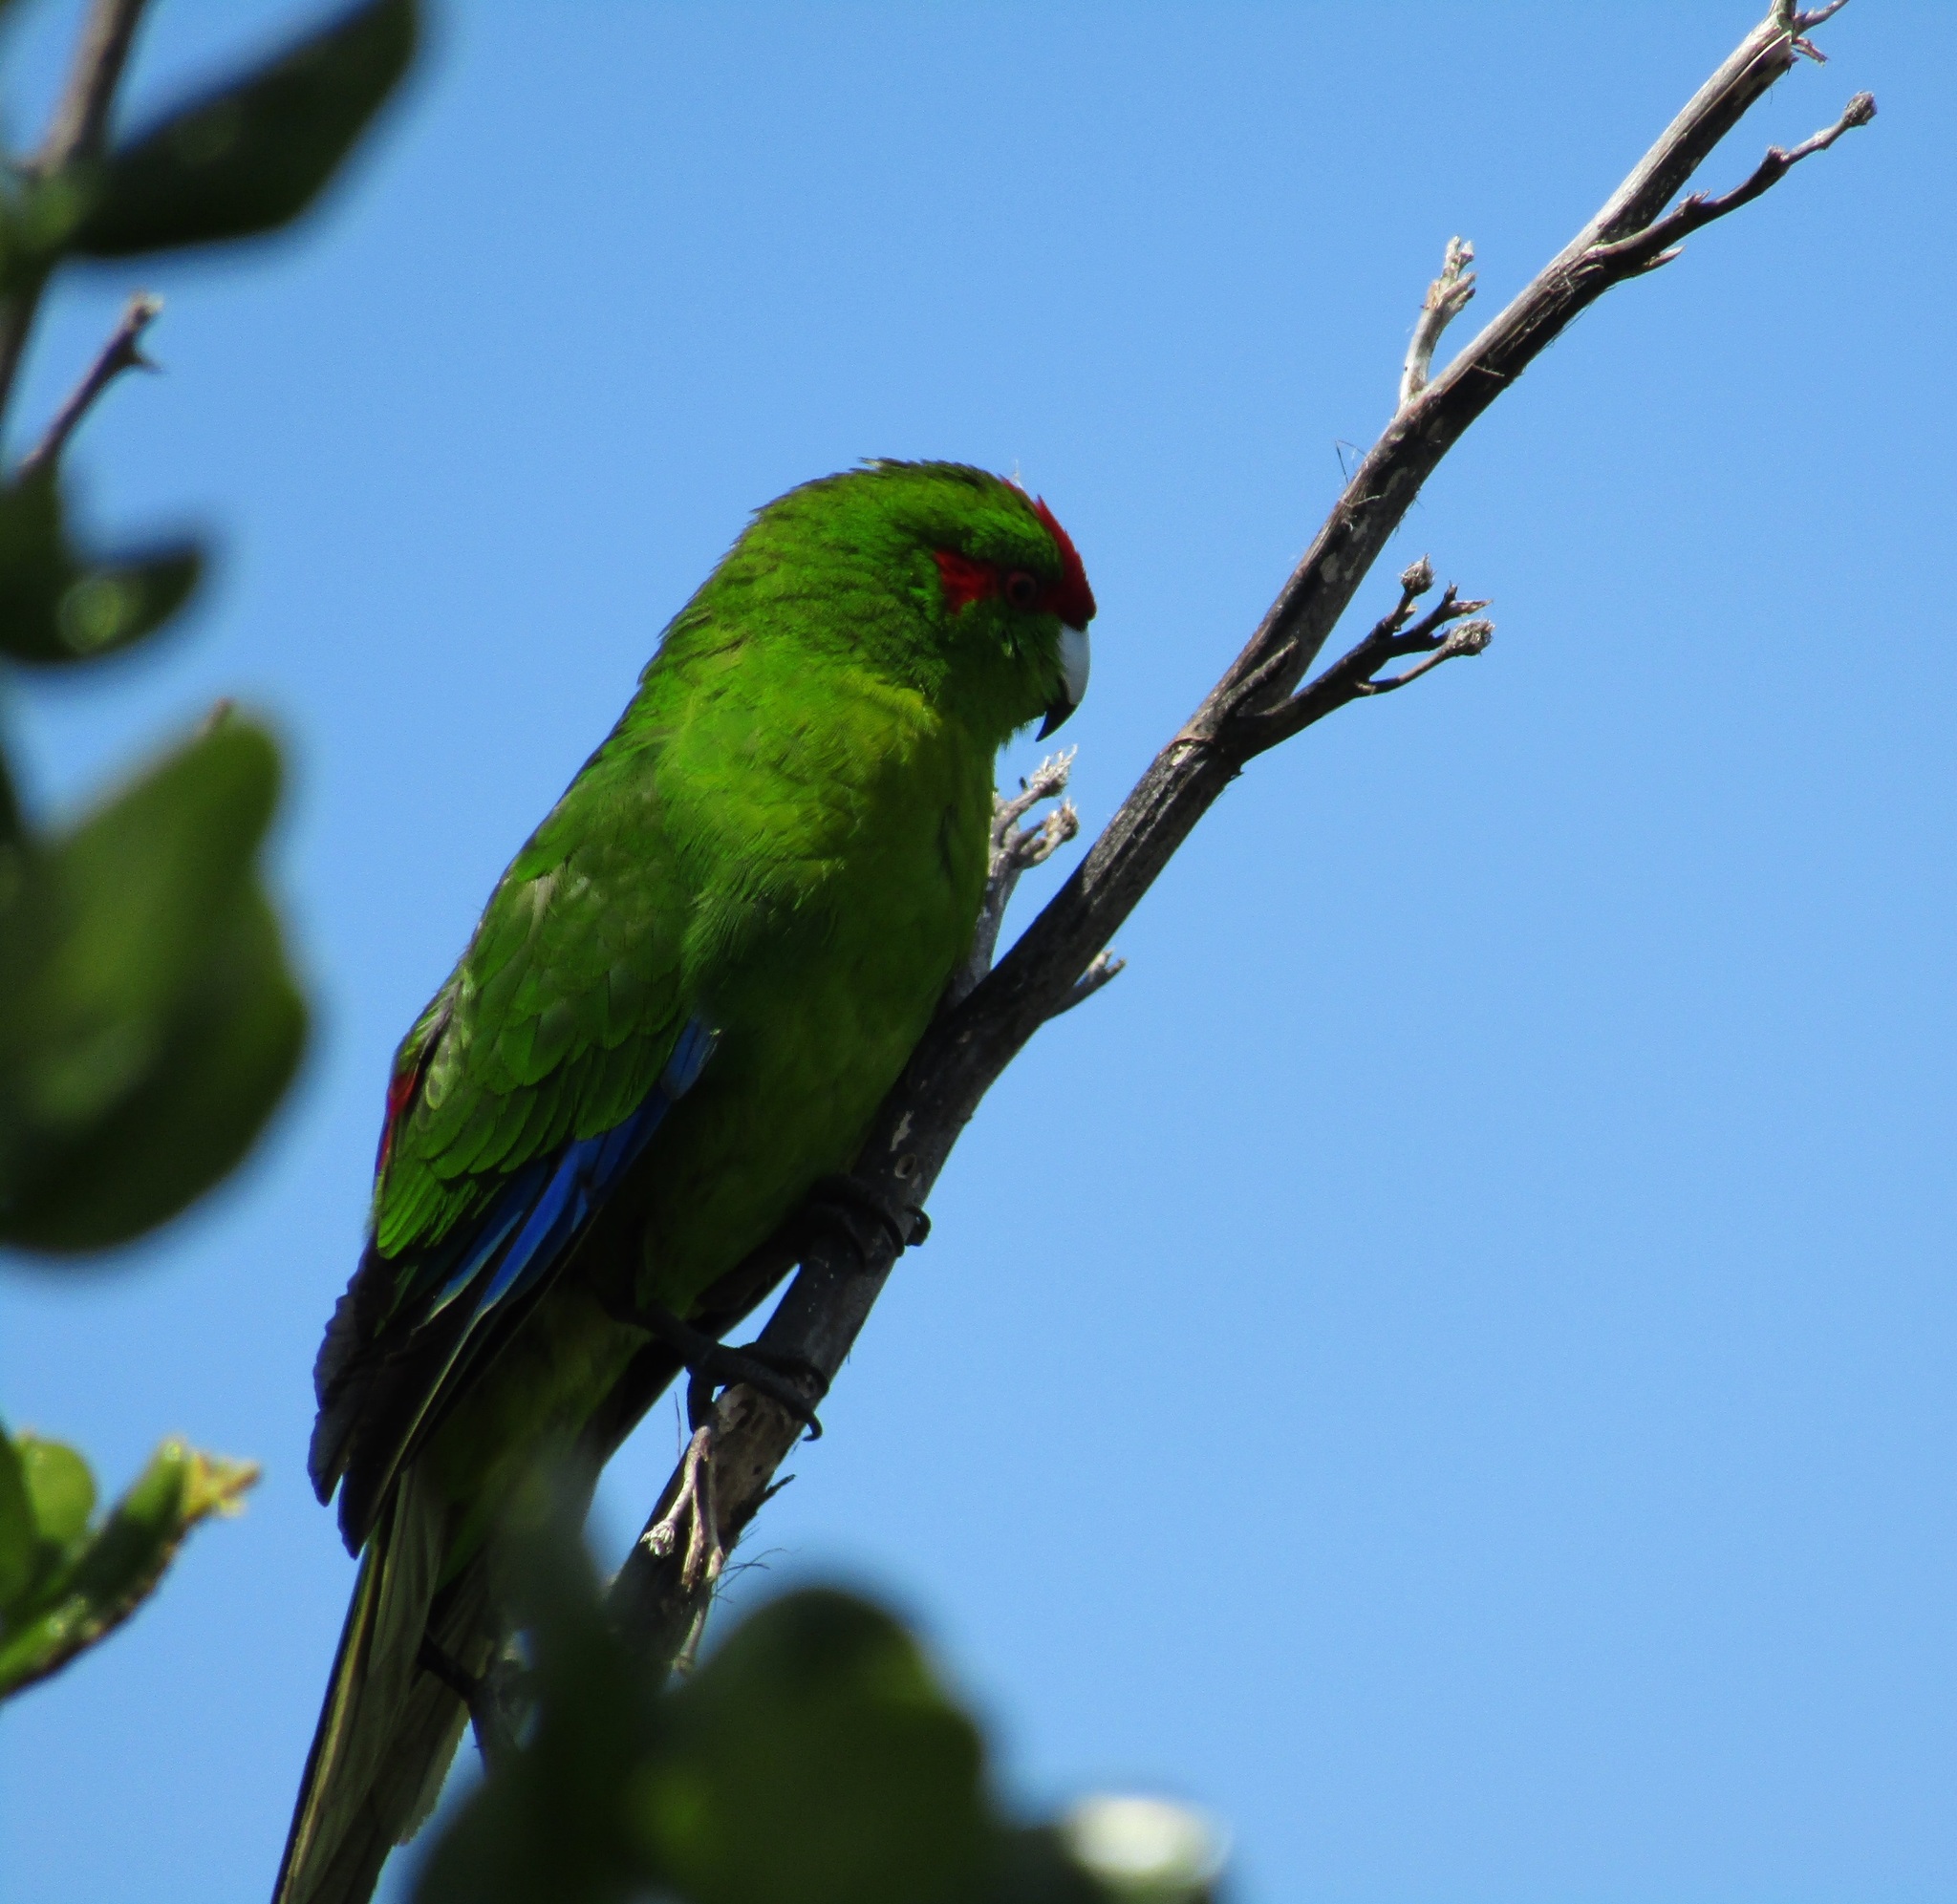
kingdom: Animalia
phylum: Chordata
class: Aves
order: Psittaciformes
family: Psittacidae
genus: Cyanoramphus
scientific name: Cyanoramphus novaezelandiae
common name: Red-fronted parakeet
